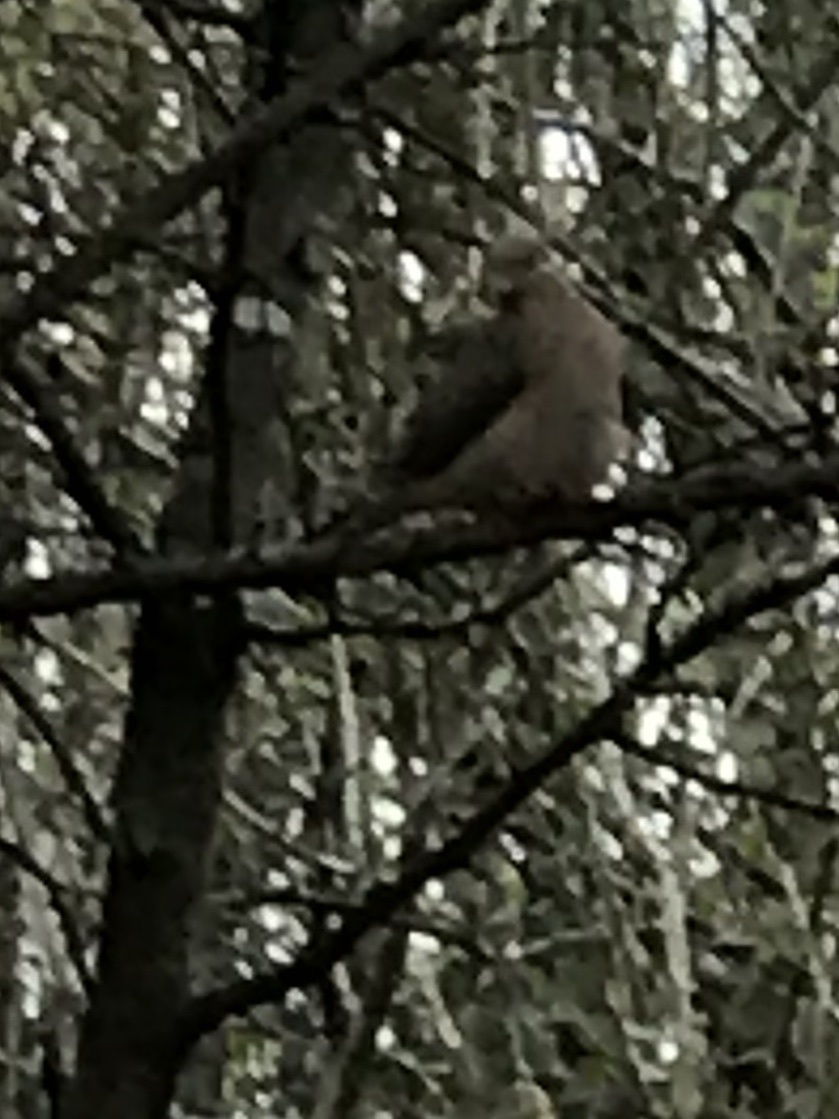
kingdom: Animalia
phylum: Chordata
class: Aves
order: Columbiformes
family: Columbidae
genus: Zenaida
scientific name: Zenaida macroura
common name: Mourning dove
